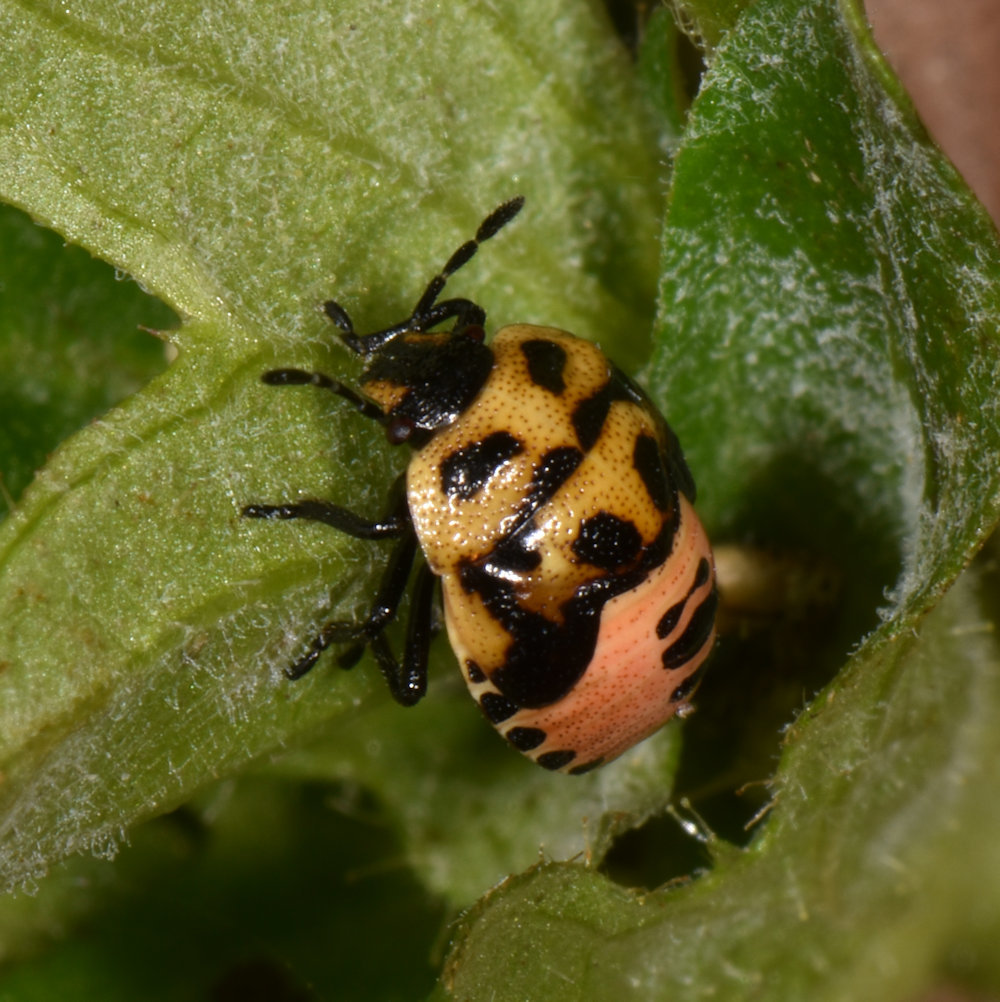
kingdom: Animalia
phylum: Arthropoda
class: Insecta
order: Hemiptera
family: Pentatomidae
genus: Cosmopepla
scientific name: Cosmopepla lintneriana
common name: Twice-stabbed stink bug
